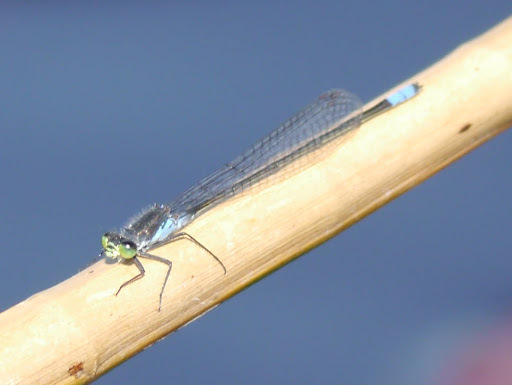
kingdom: Animalia
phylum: Arthropoda
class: Insecta
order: Odonata
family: Coenagrionidae
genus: Pseudagrion
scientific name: Pseudagrion deningi
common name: Dening's sprite
